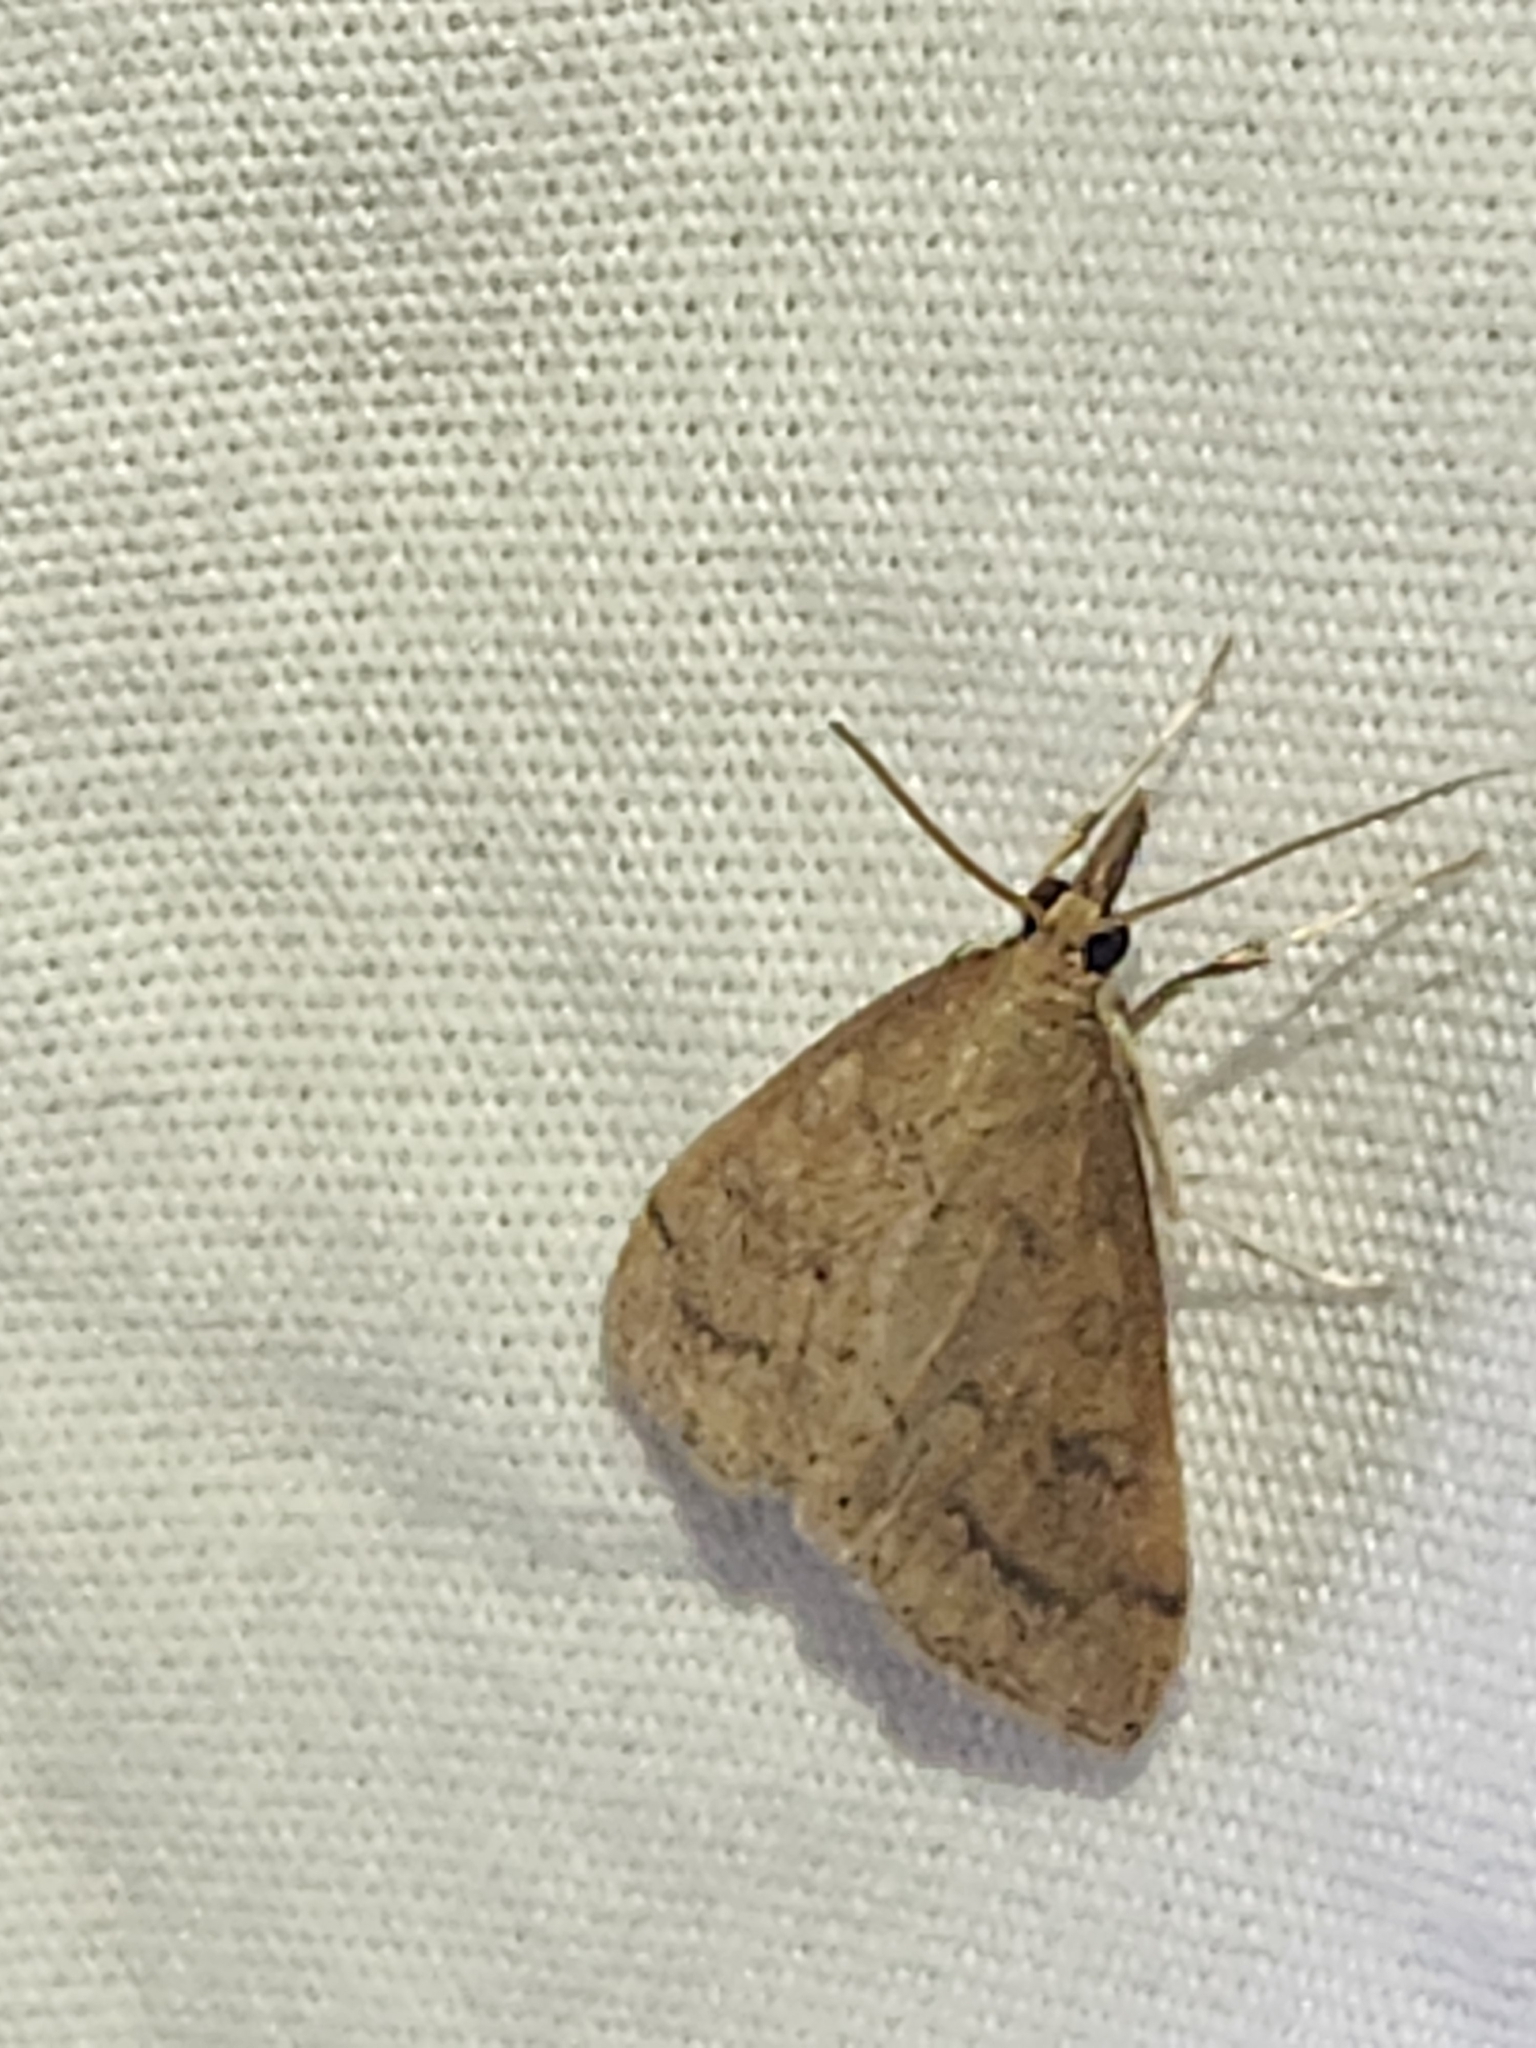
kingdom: Animalia
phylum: Arthropoda
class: Insecta
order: Lepidoptera
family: Crambidae
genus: Udea
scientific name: Udea rubigalis
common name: Celery leaftier moth
